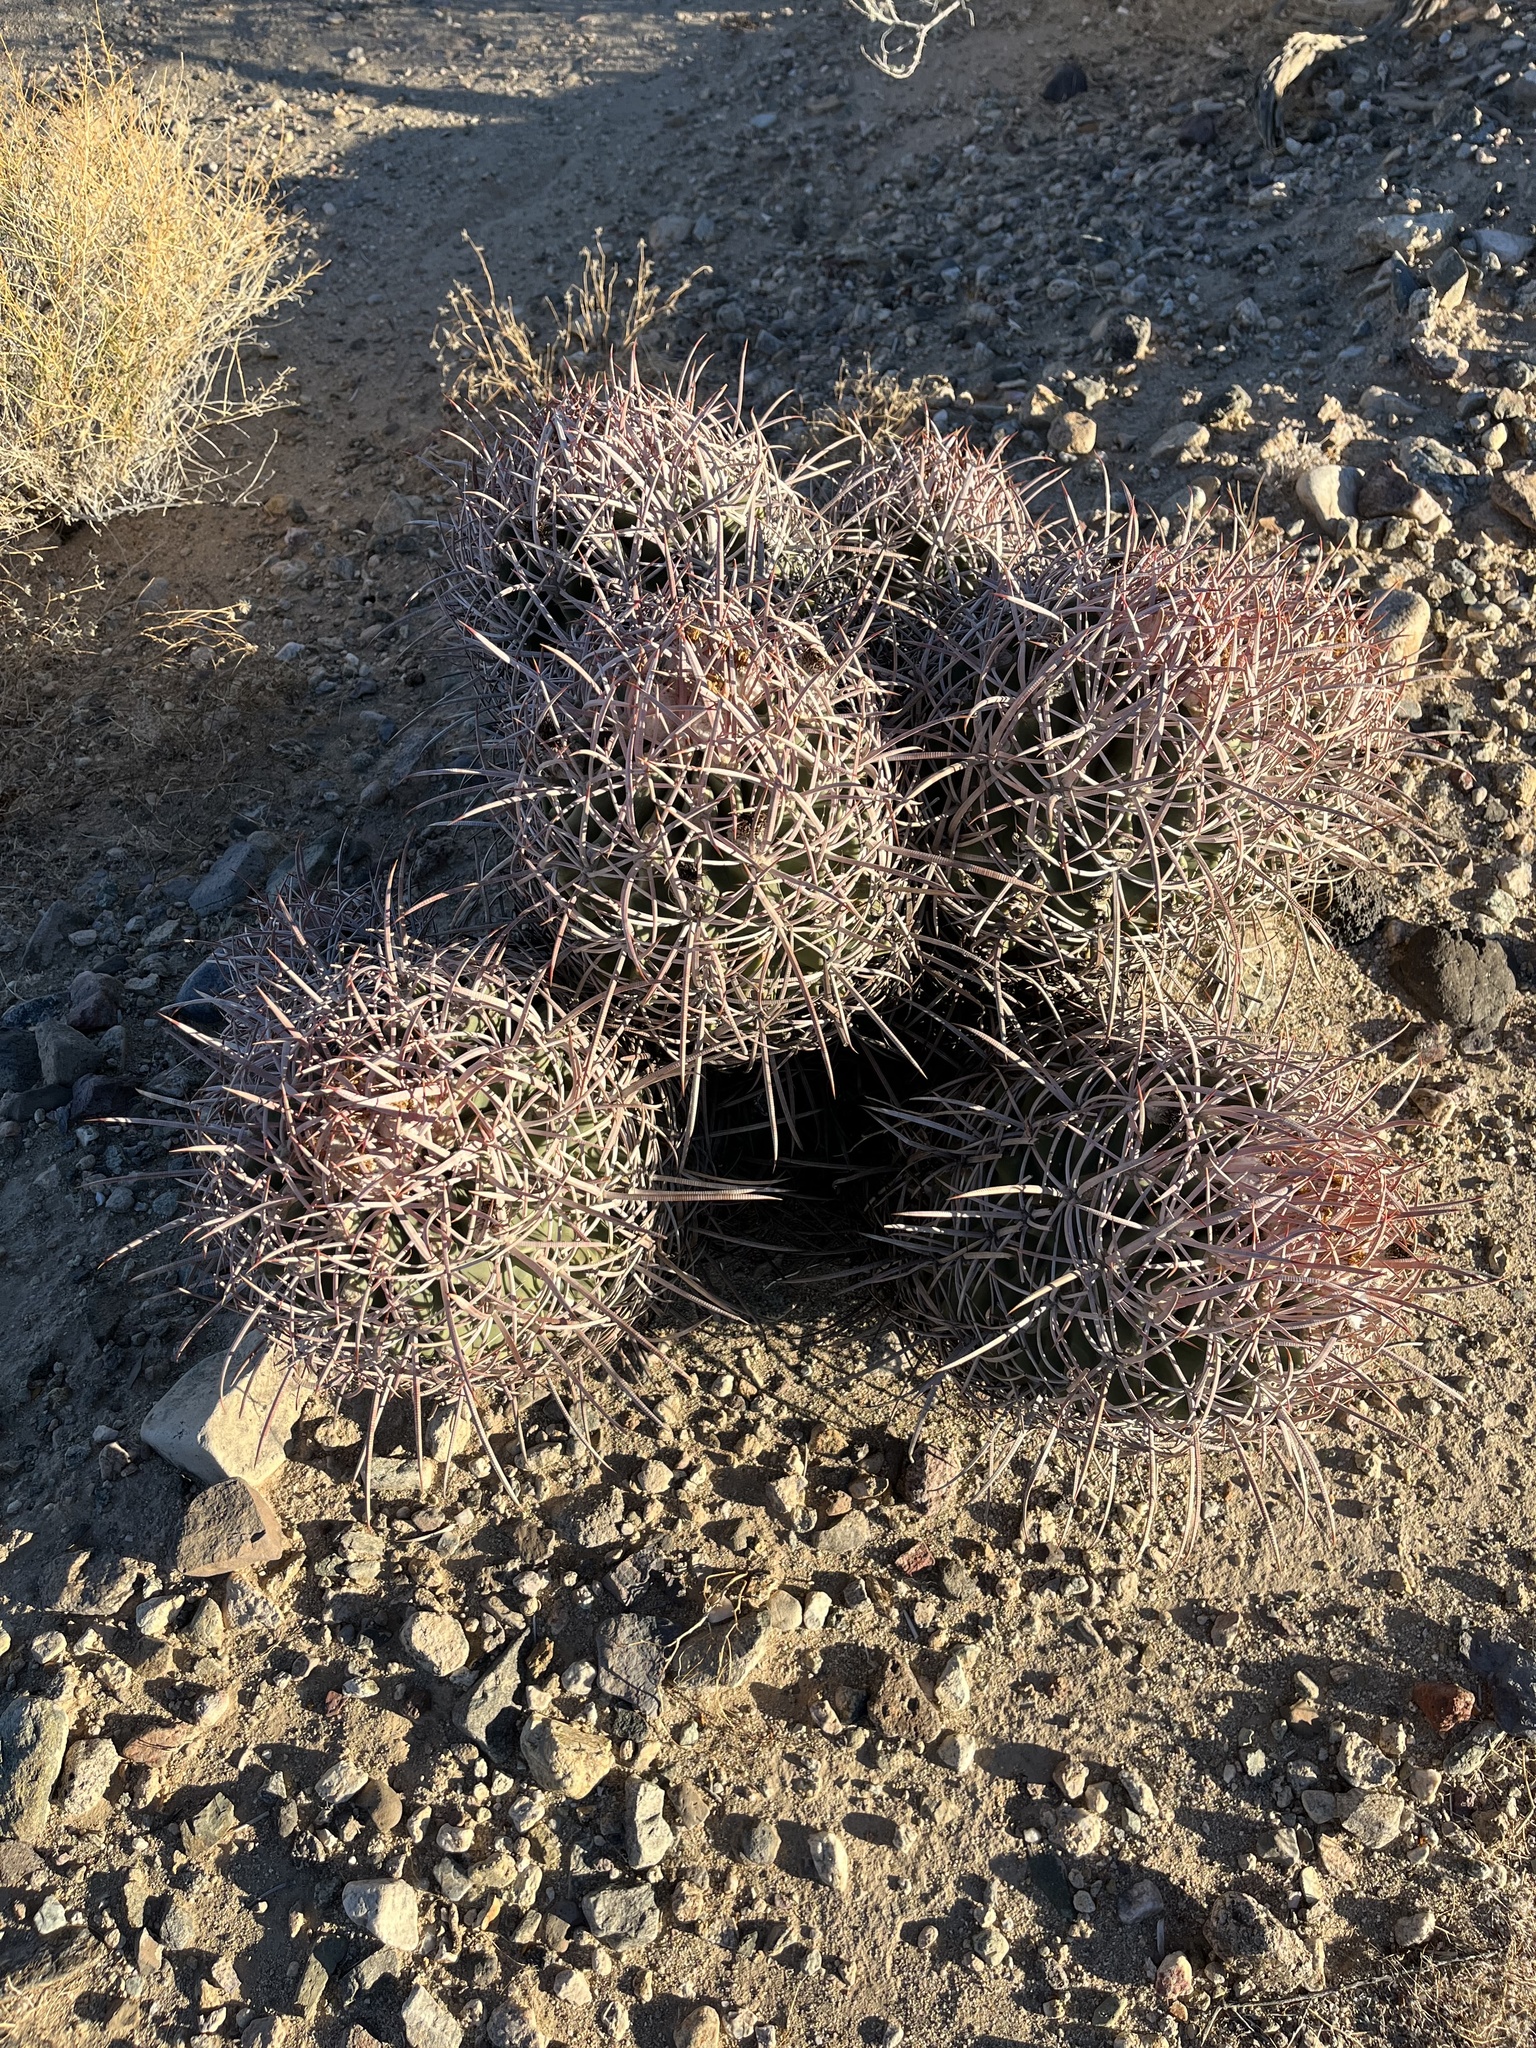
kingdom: Plantae
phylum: Tracheophyta
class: Magnoliopsida
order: Caryophyllales
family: Cactaceae
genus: Echinocactus
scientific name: Echinocactus polycephalus
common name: Cottontop cactus
